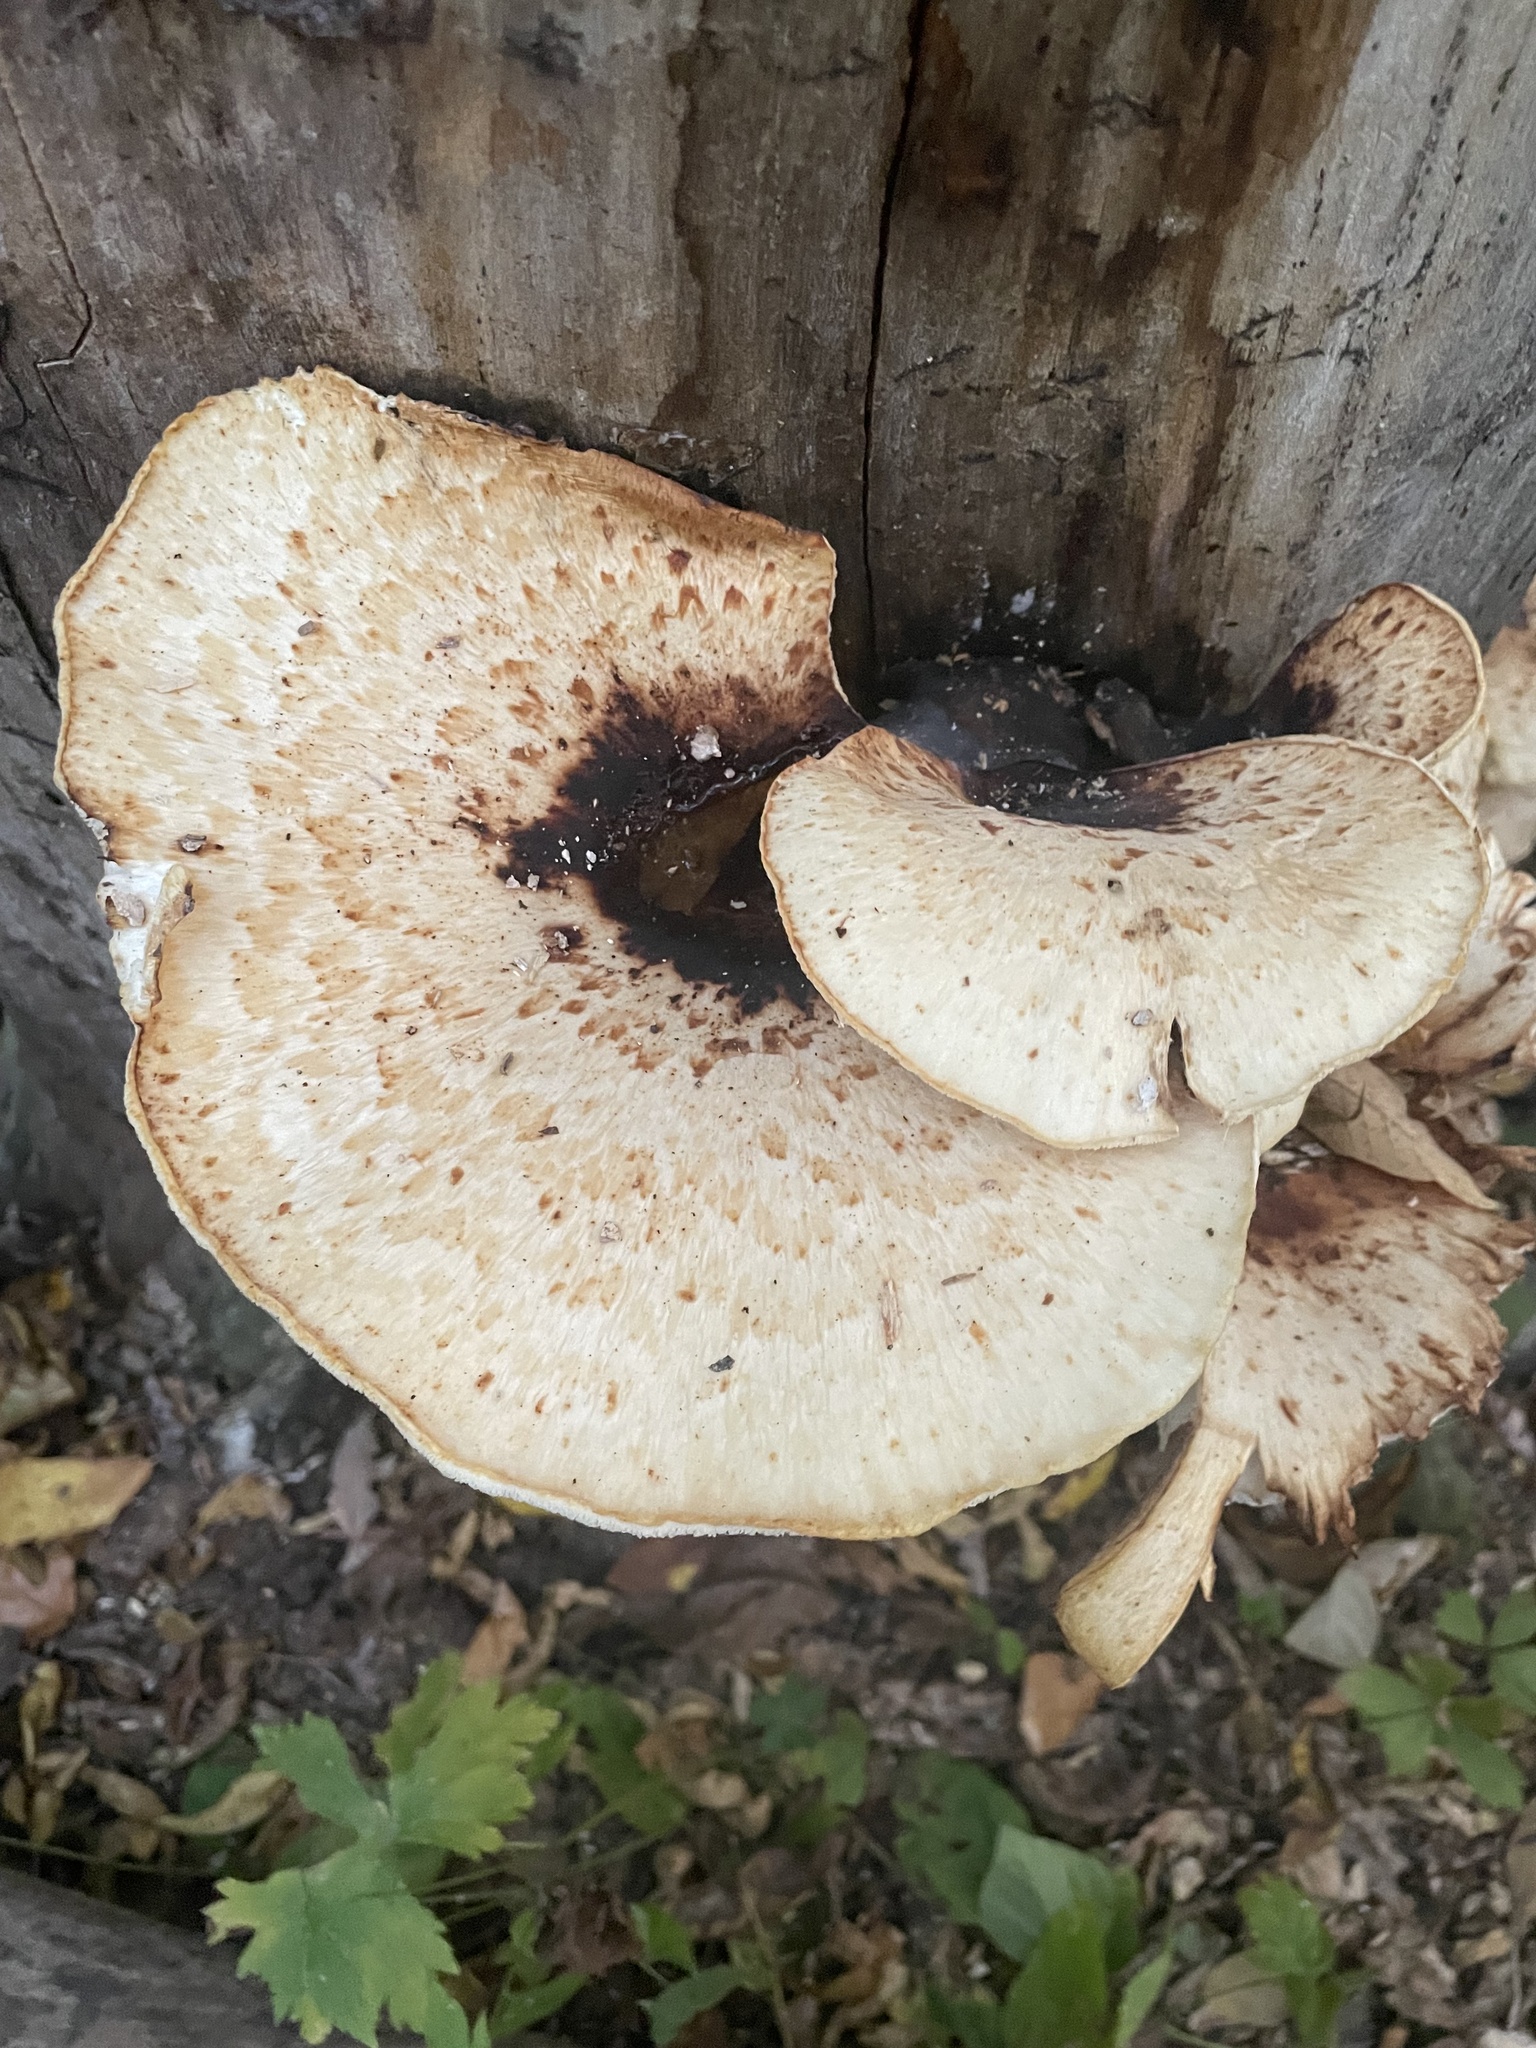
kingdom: Fungi
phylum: Basidiomycota
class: Agaricomycetes
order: Polyporales
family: Polyporaceae
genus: Cerioporus
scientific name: Cerioporus squamosus
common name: Dryad's saddle
